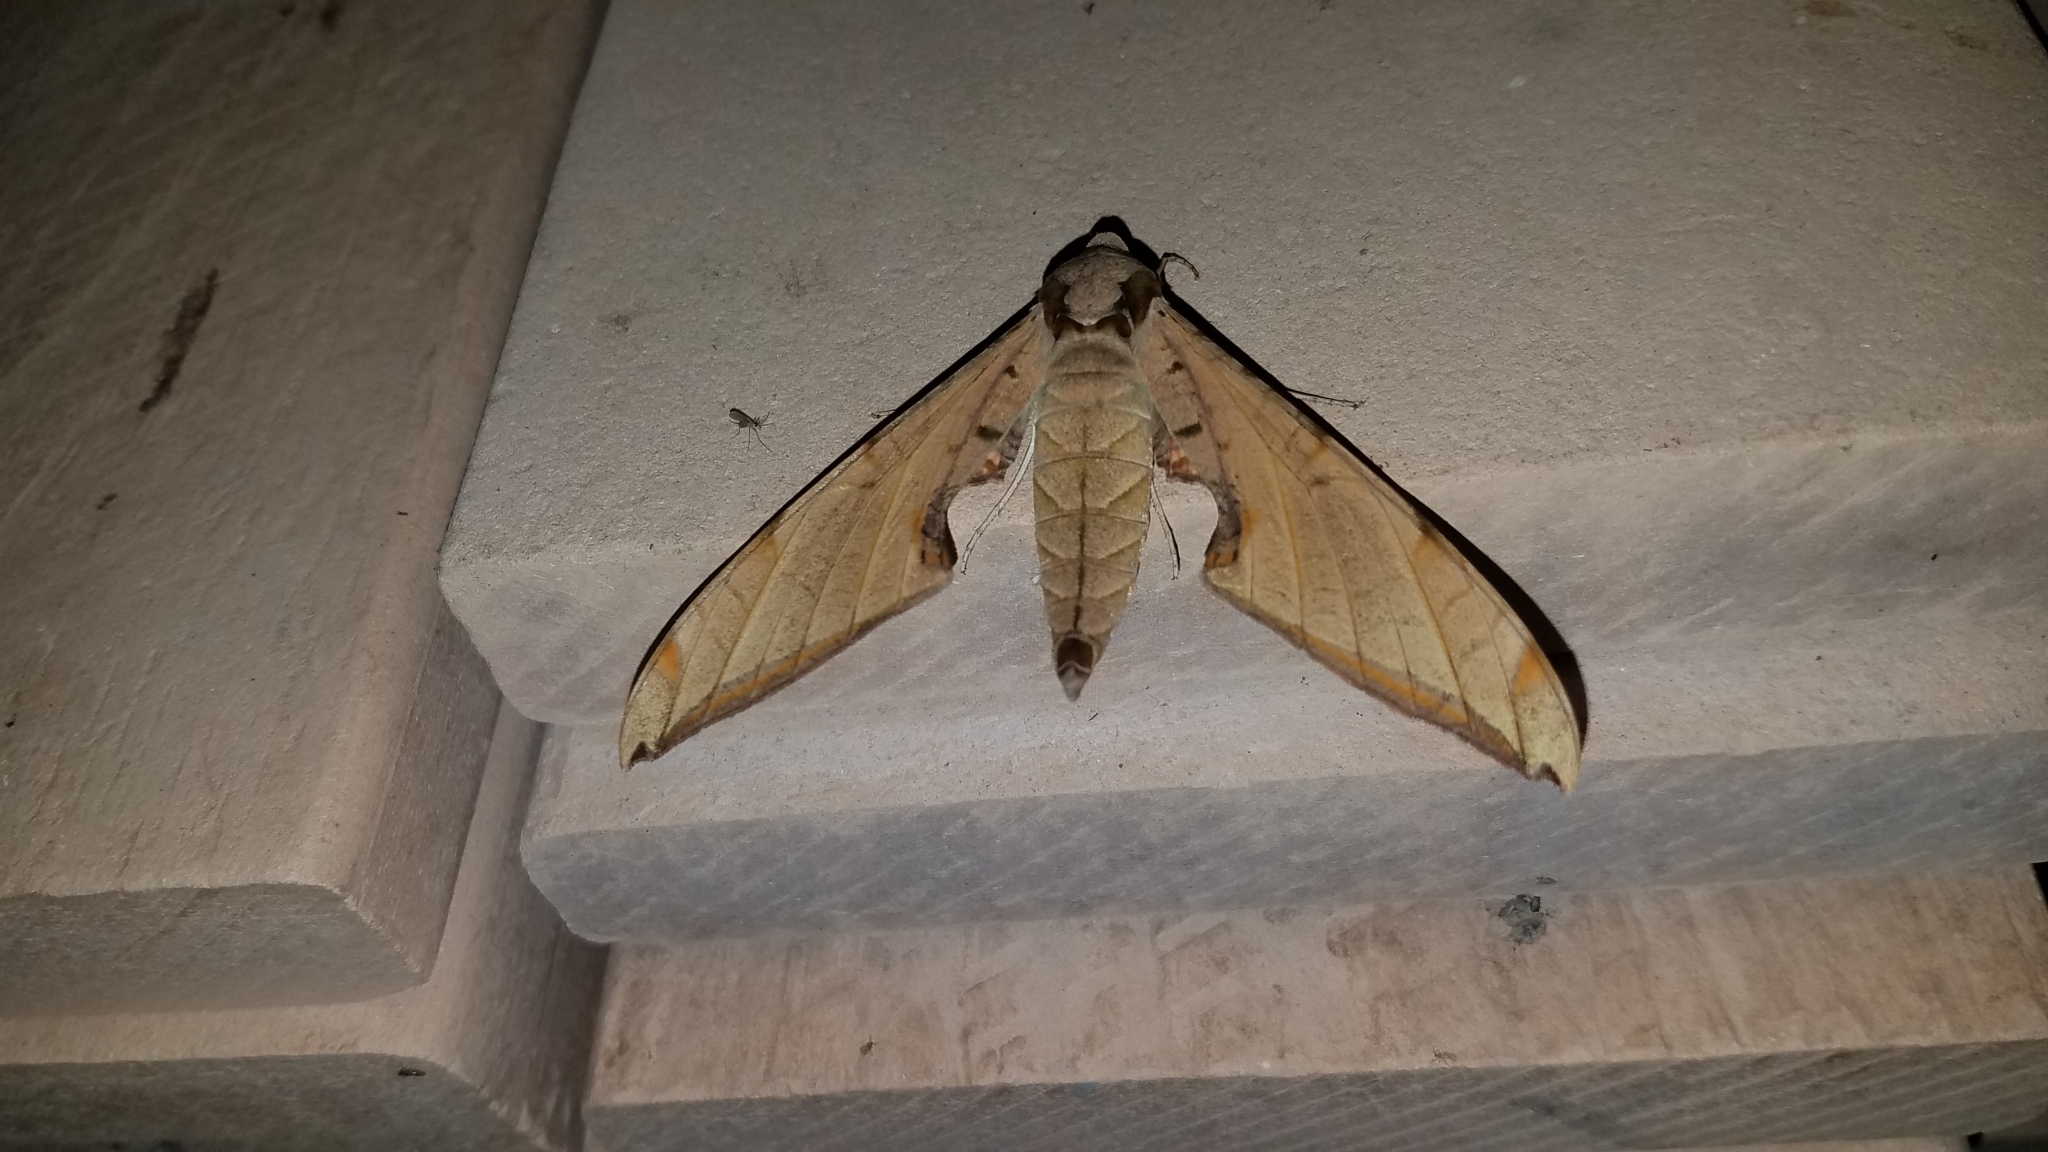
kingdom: Animalia
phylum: Arthropoda
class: Insecta
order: Lepidoptera
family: Sphingidae
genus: Protambulyx
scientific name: Protambulyx strigilis
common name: Streaked sphinx
